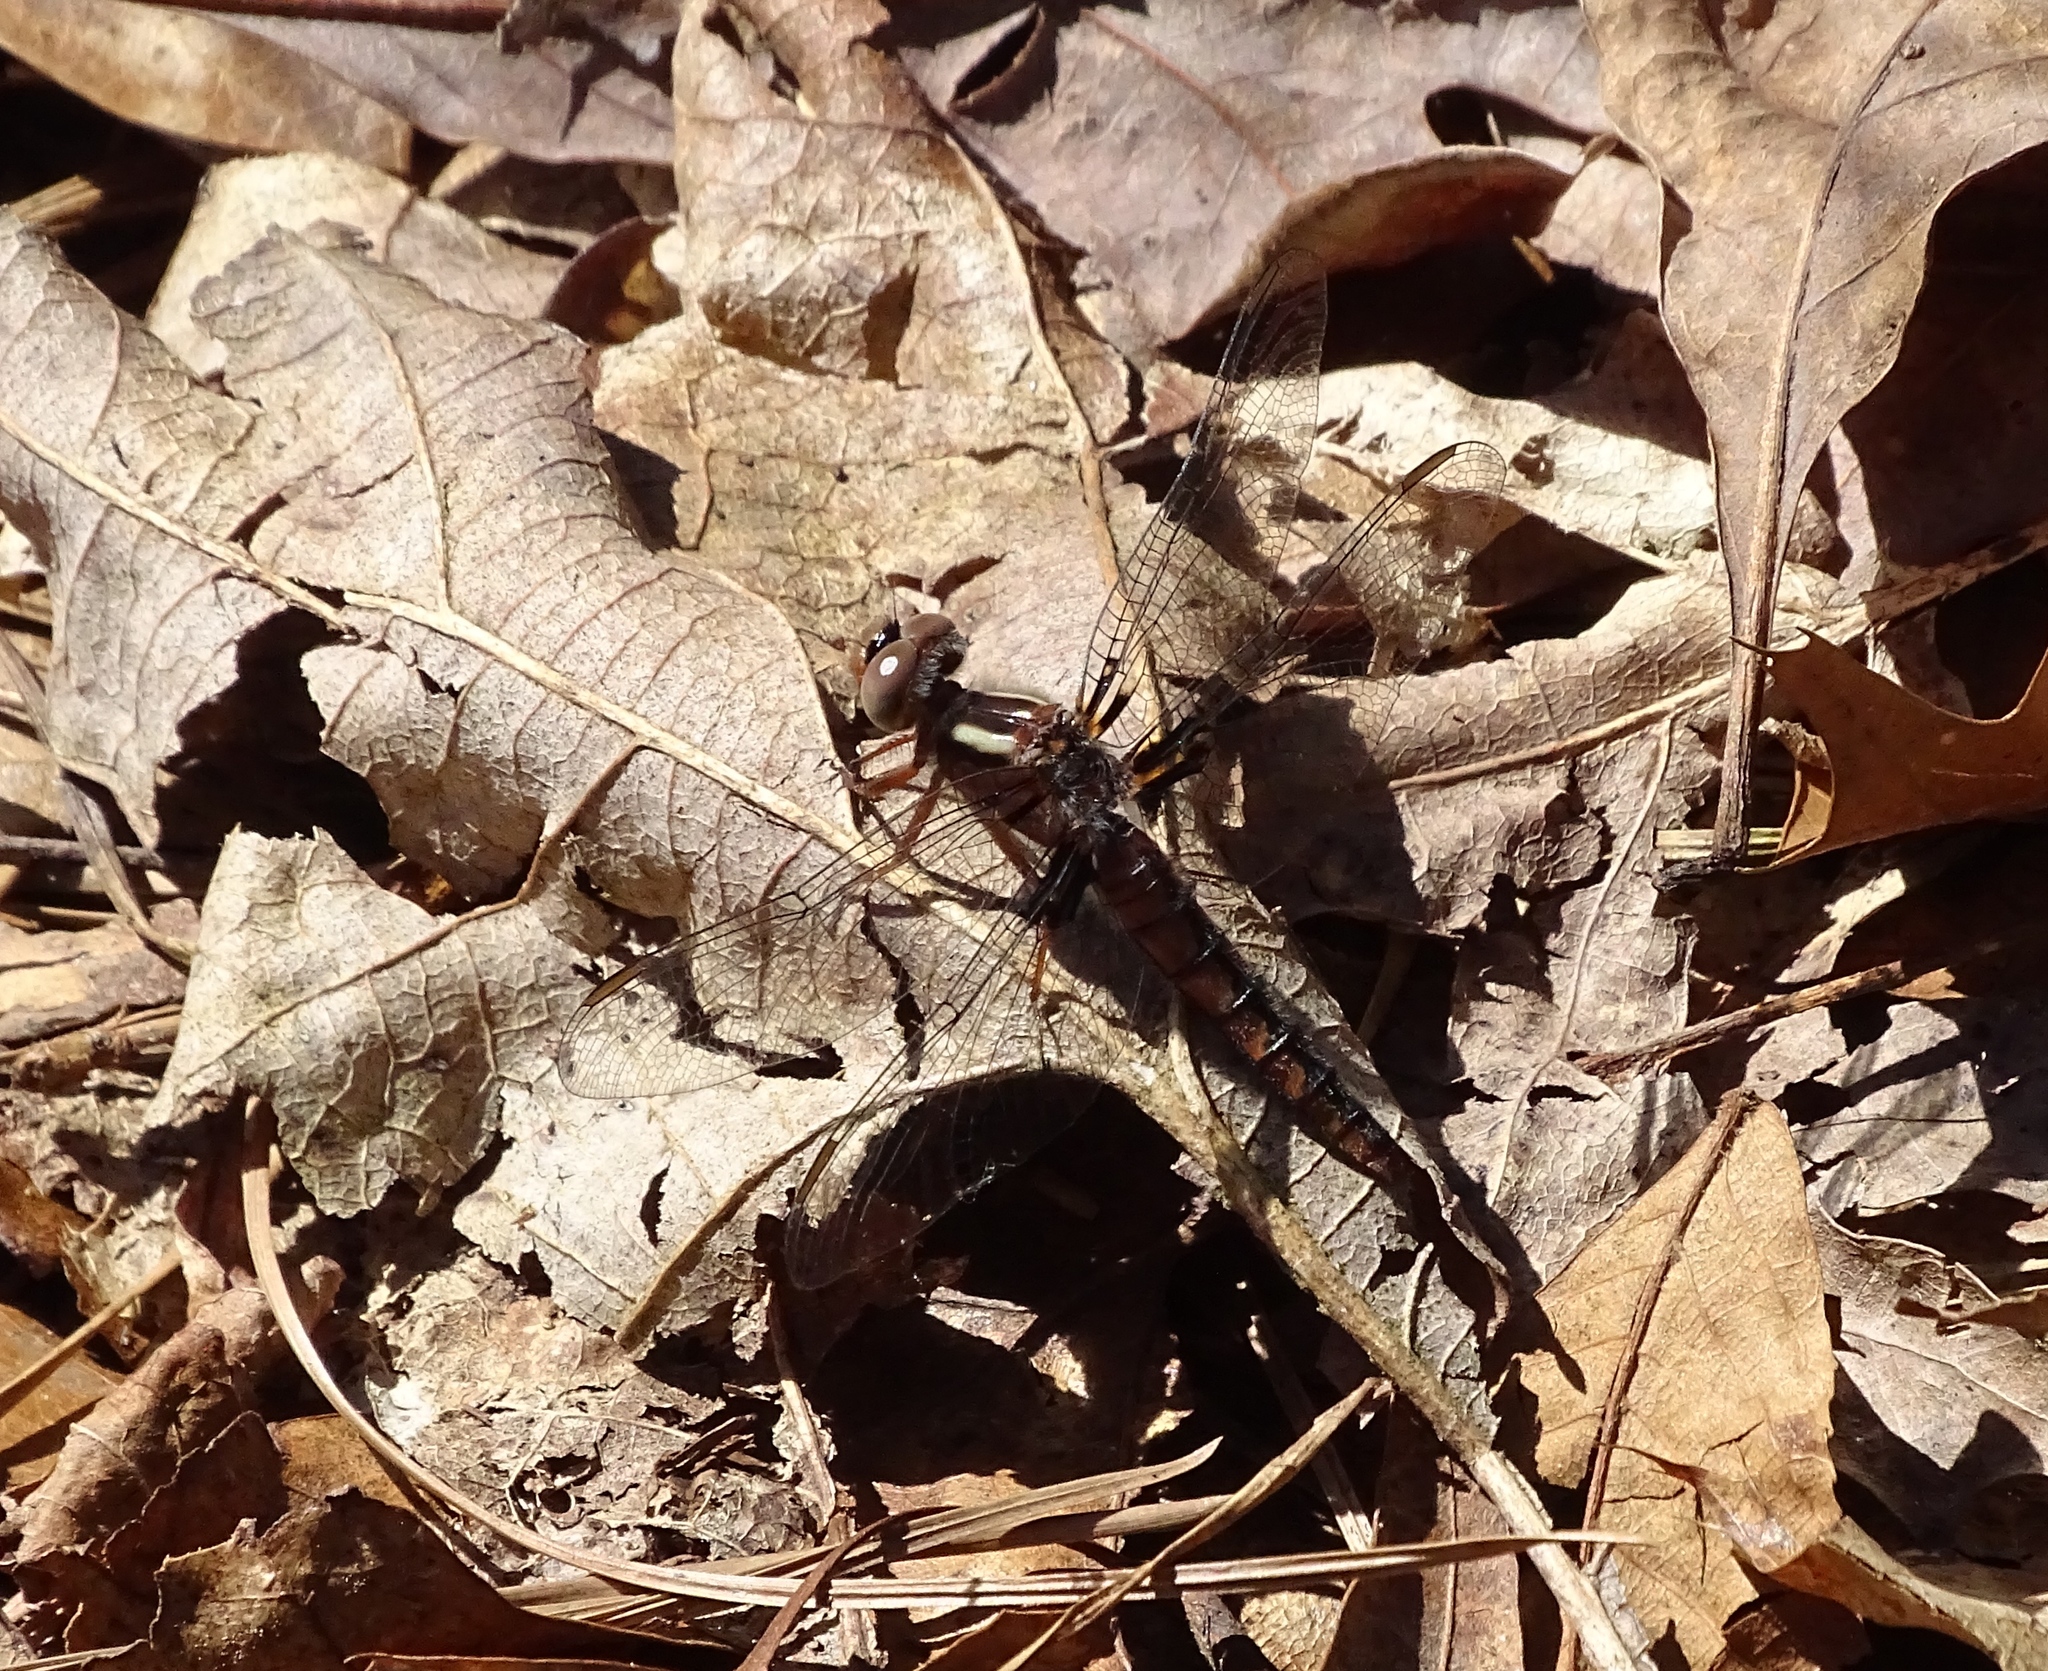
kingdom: Animalia
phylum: Arthropoda
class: Insecta
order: Odonata
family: Libellulidae
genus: Ladona
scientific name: Ladona deplanata
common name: Blue corporal
